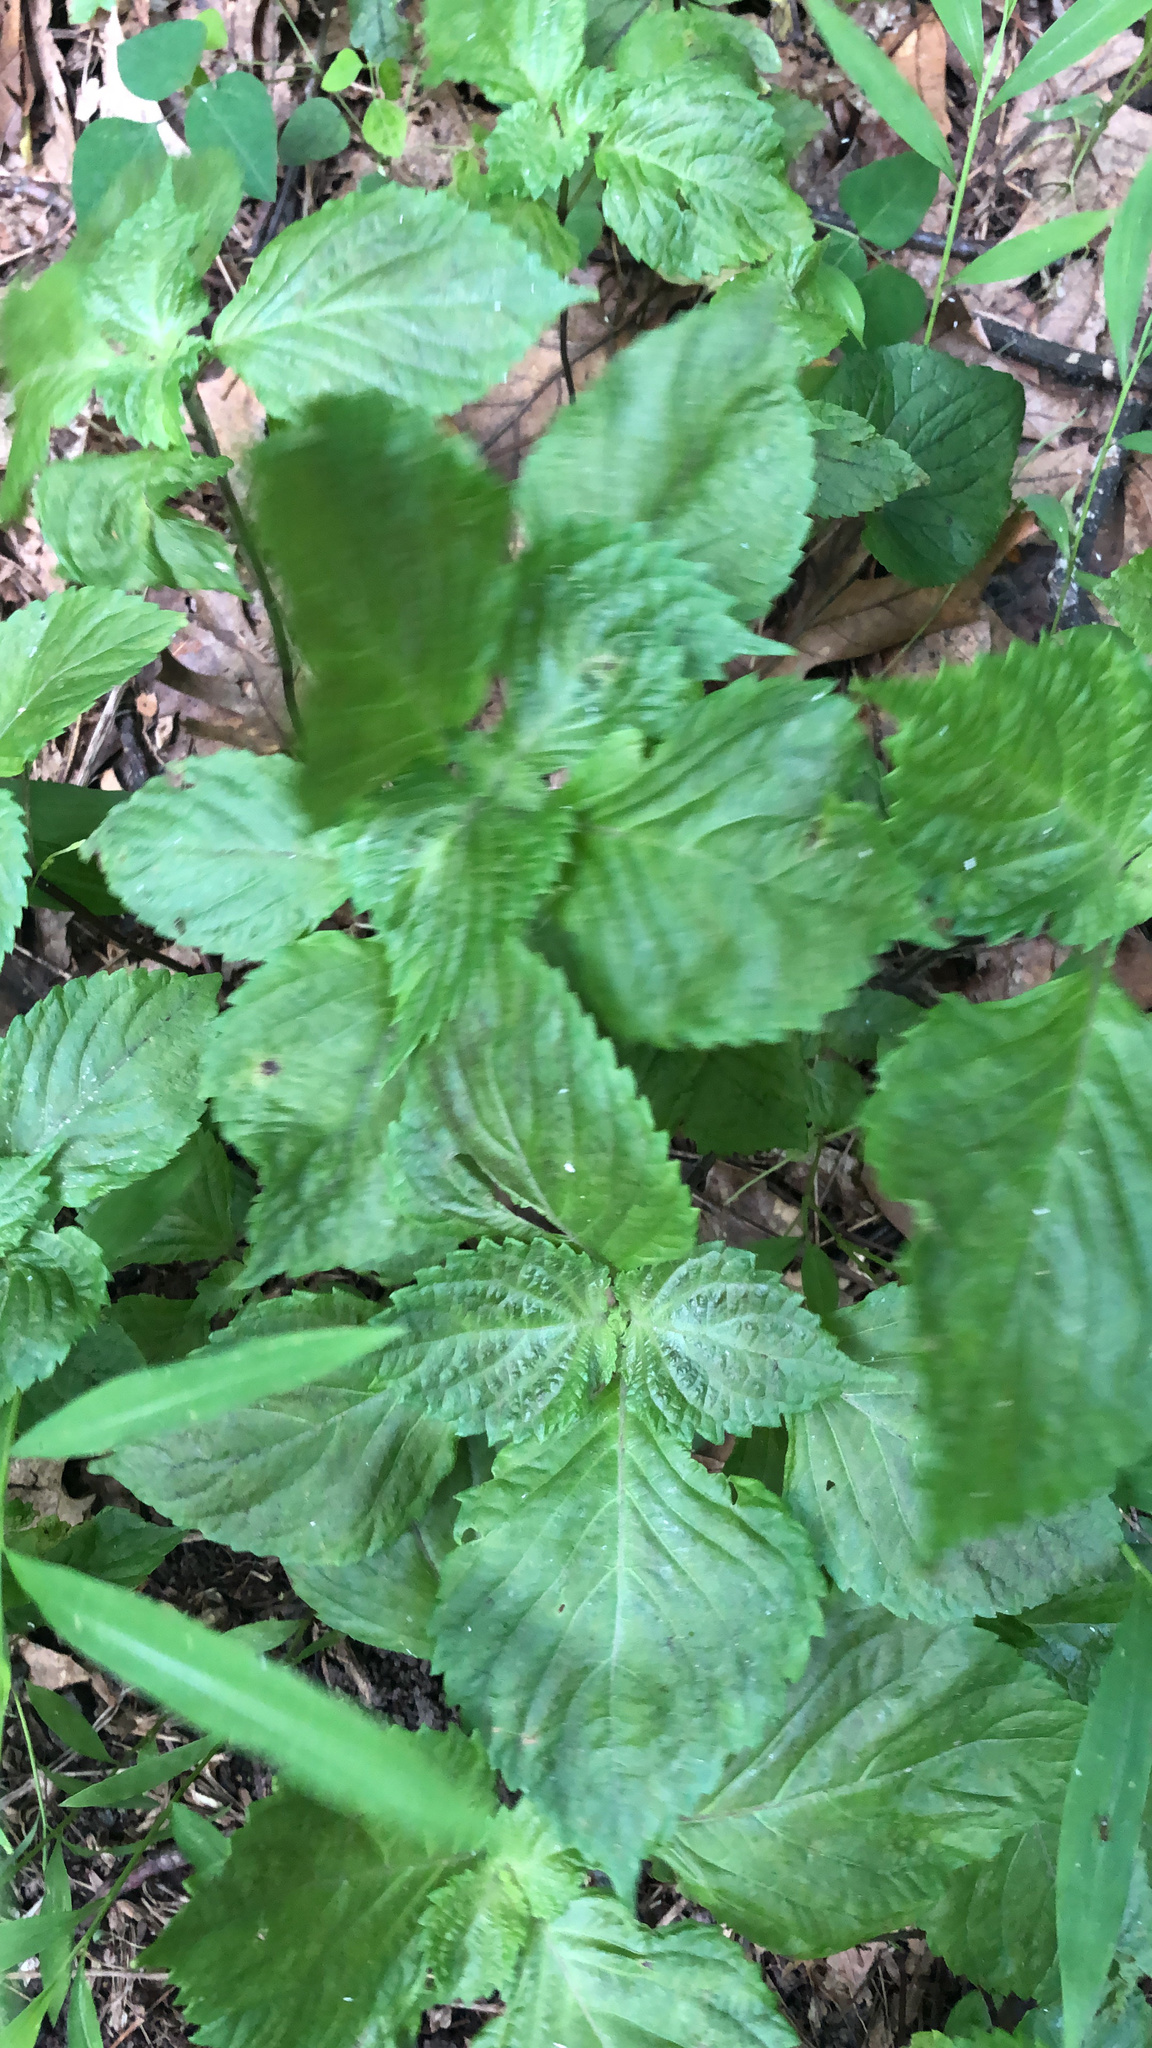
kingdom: Plantae
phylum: Tracheophyta
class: Magnoliopsida
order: Lamiales
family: Lamiaceae
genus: Perilla
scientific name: Perilla frutescens
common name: Perilla
